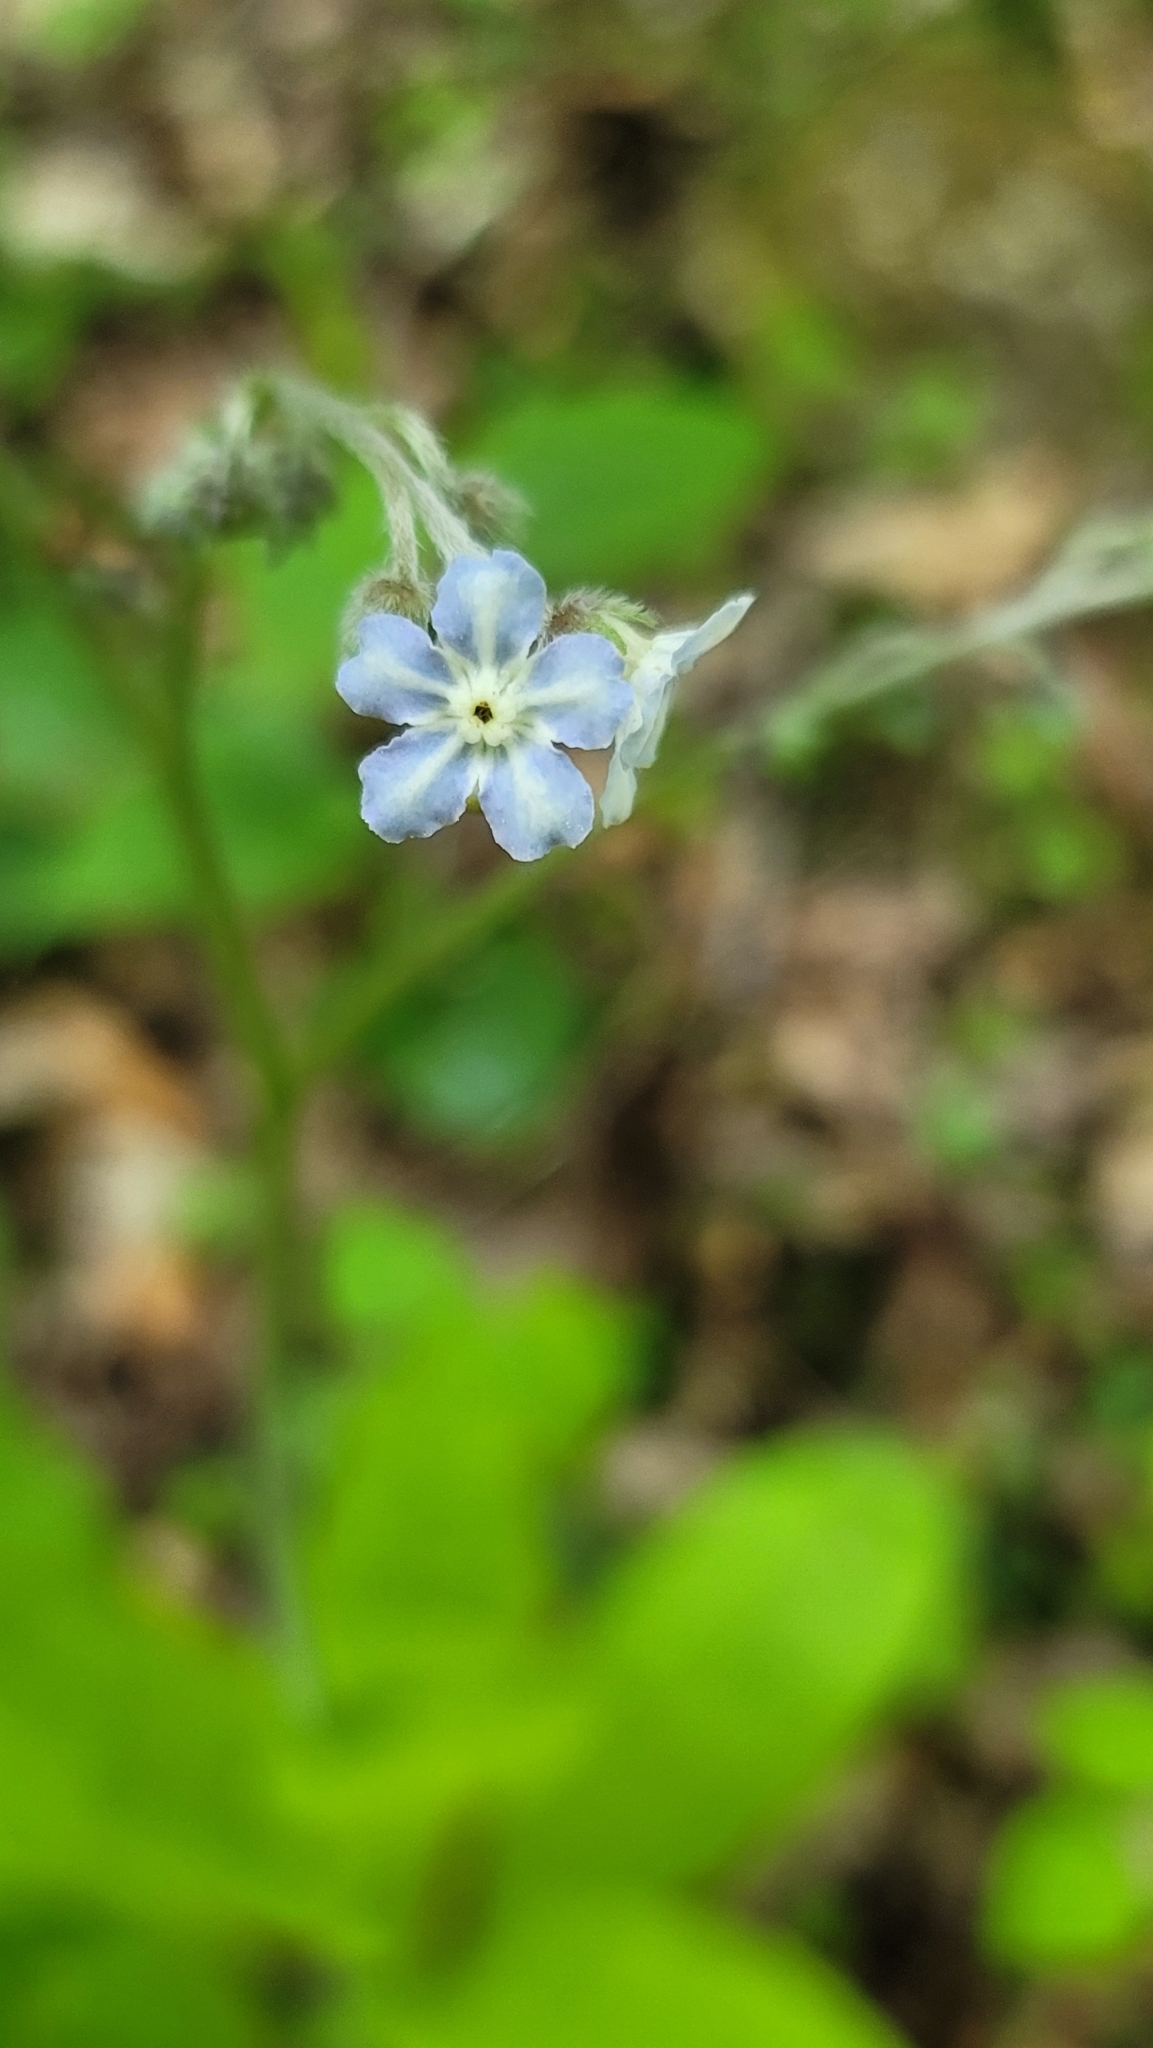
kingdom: Plantae
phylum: Tracheophyta
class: Magnoliopsida
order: Boraginales
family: Boraginaceae
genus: Andersonglossum
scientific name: Andersonglossum virginianum
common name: Wild comfrey
